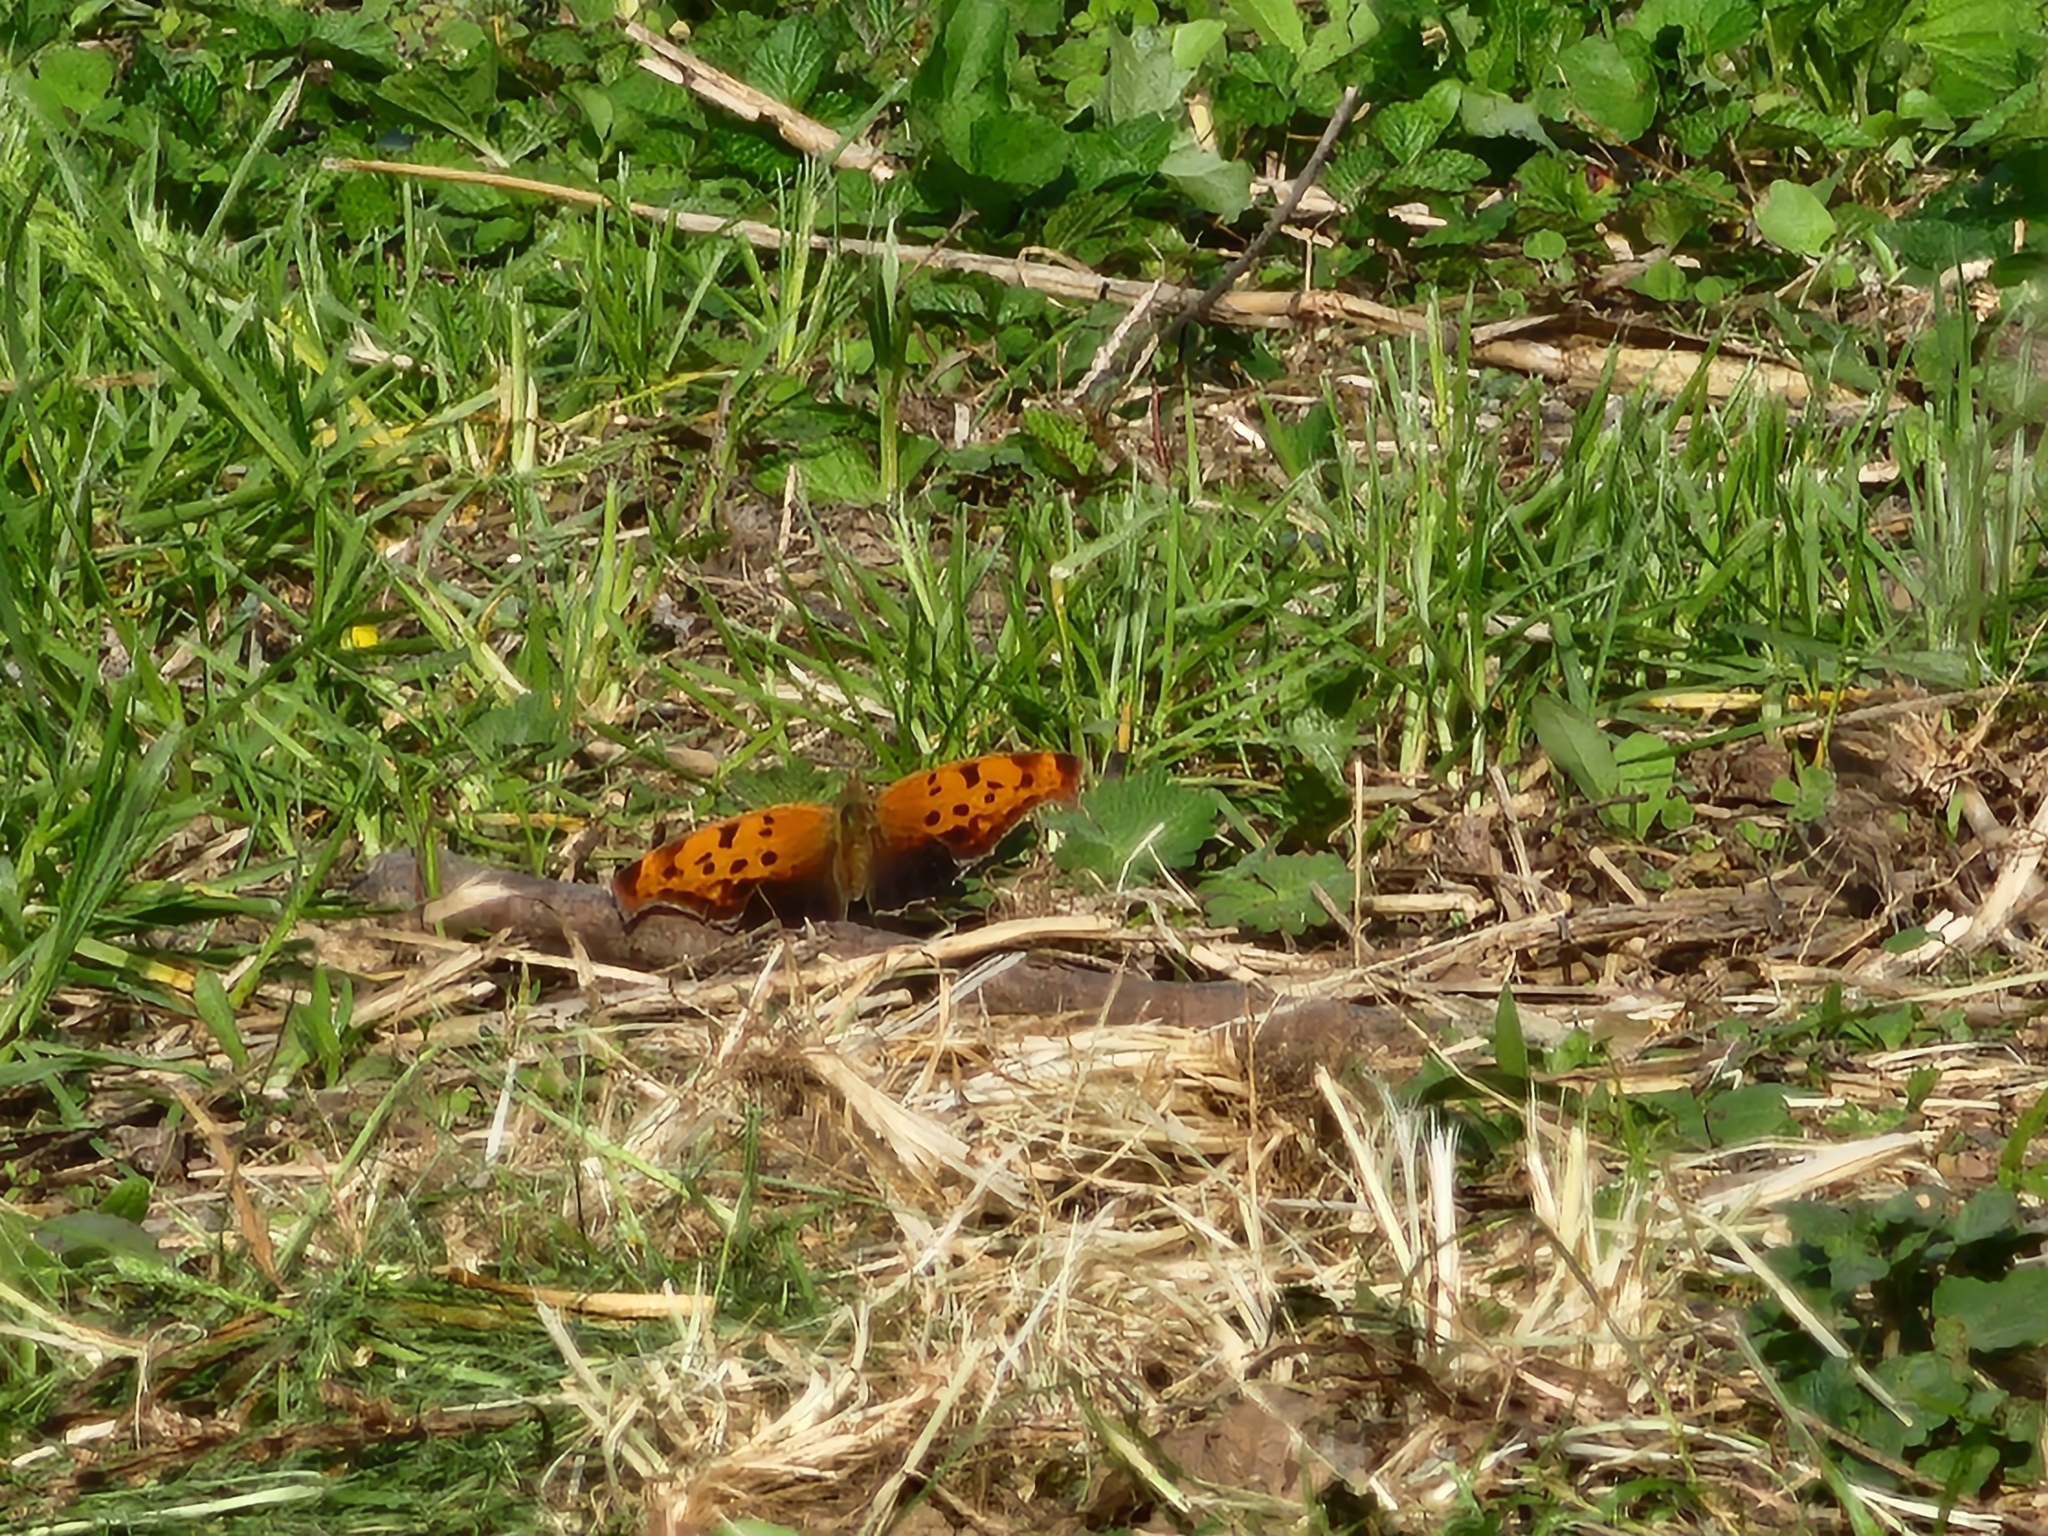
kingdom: Animalia
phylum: Arthropoda
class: Insecta
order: Lepidoptera
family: Nymphalidae
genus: Polygonia
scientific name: Polygonia interrogationis
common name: Question mark
